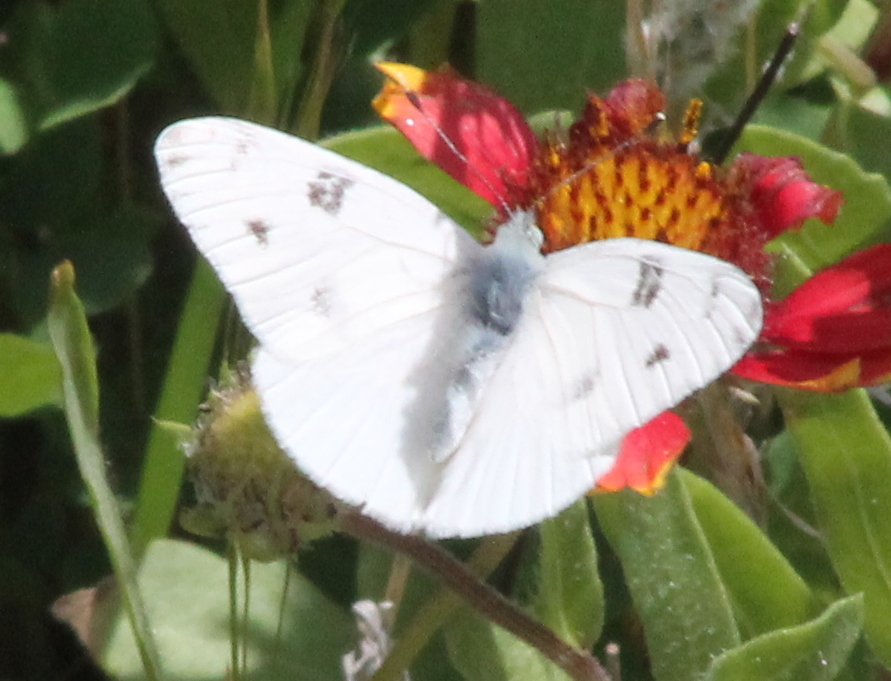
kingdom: Animalia
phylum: Arthropoda
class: Insecta
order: Lepidoptera
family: Pieridae
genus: Pontia
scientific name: Pontia protodice
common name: Checkered white
